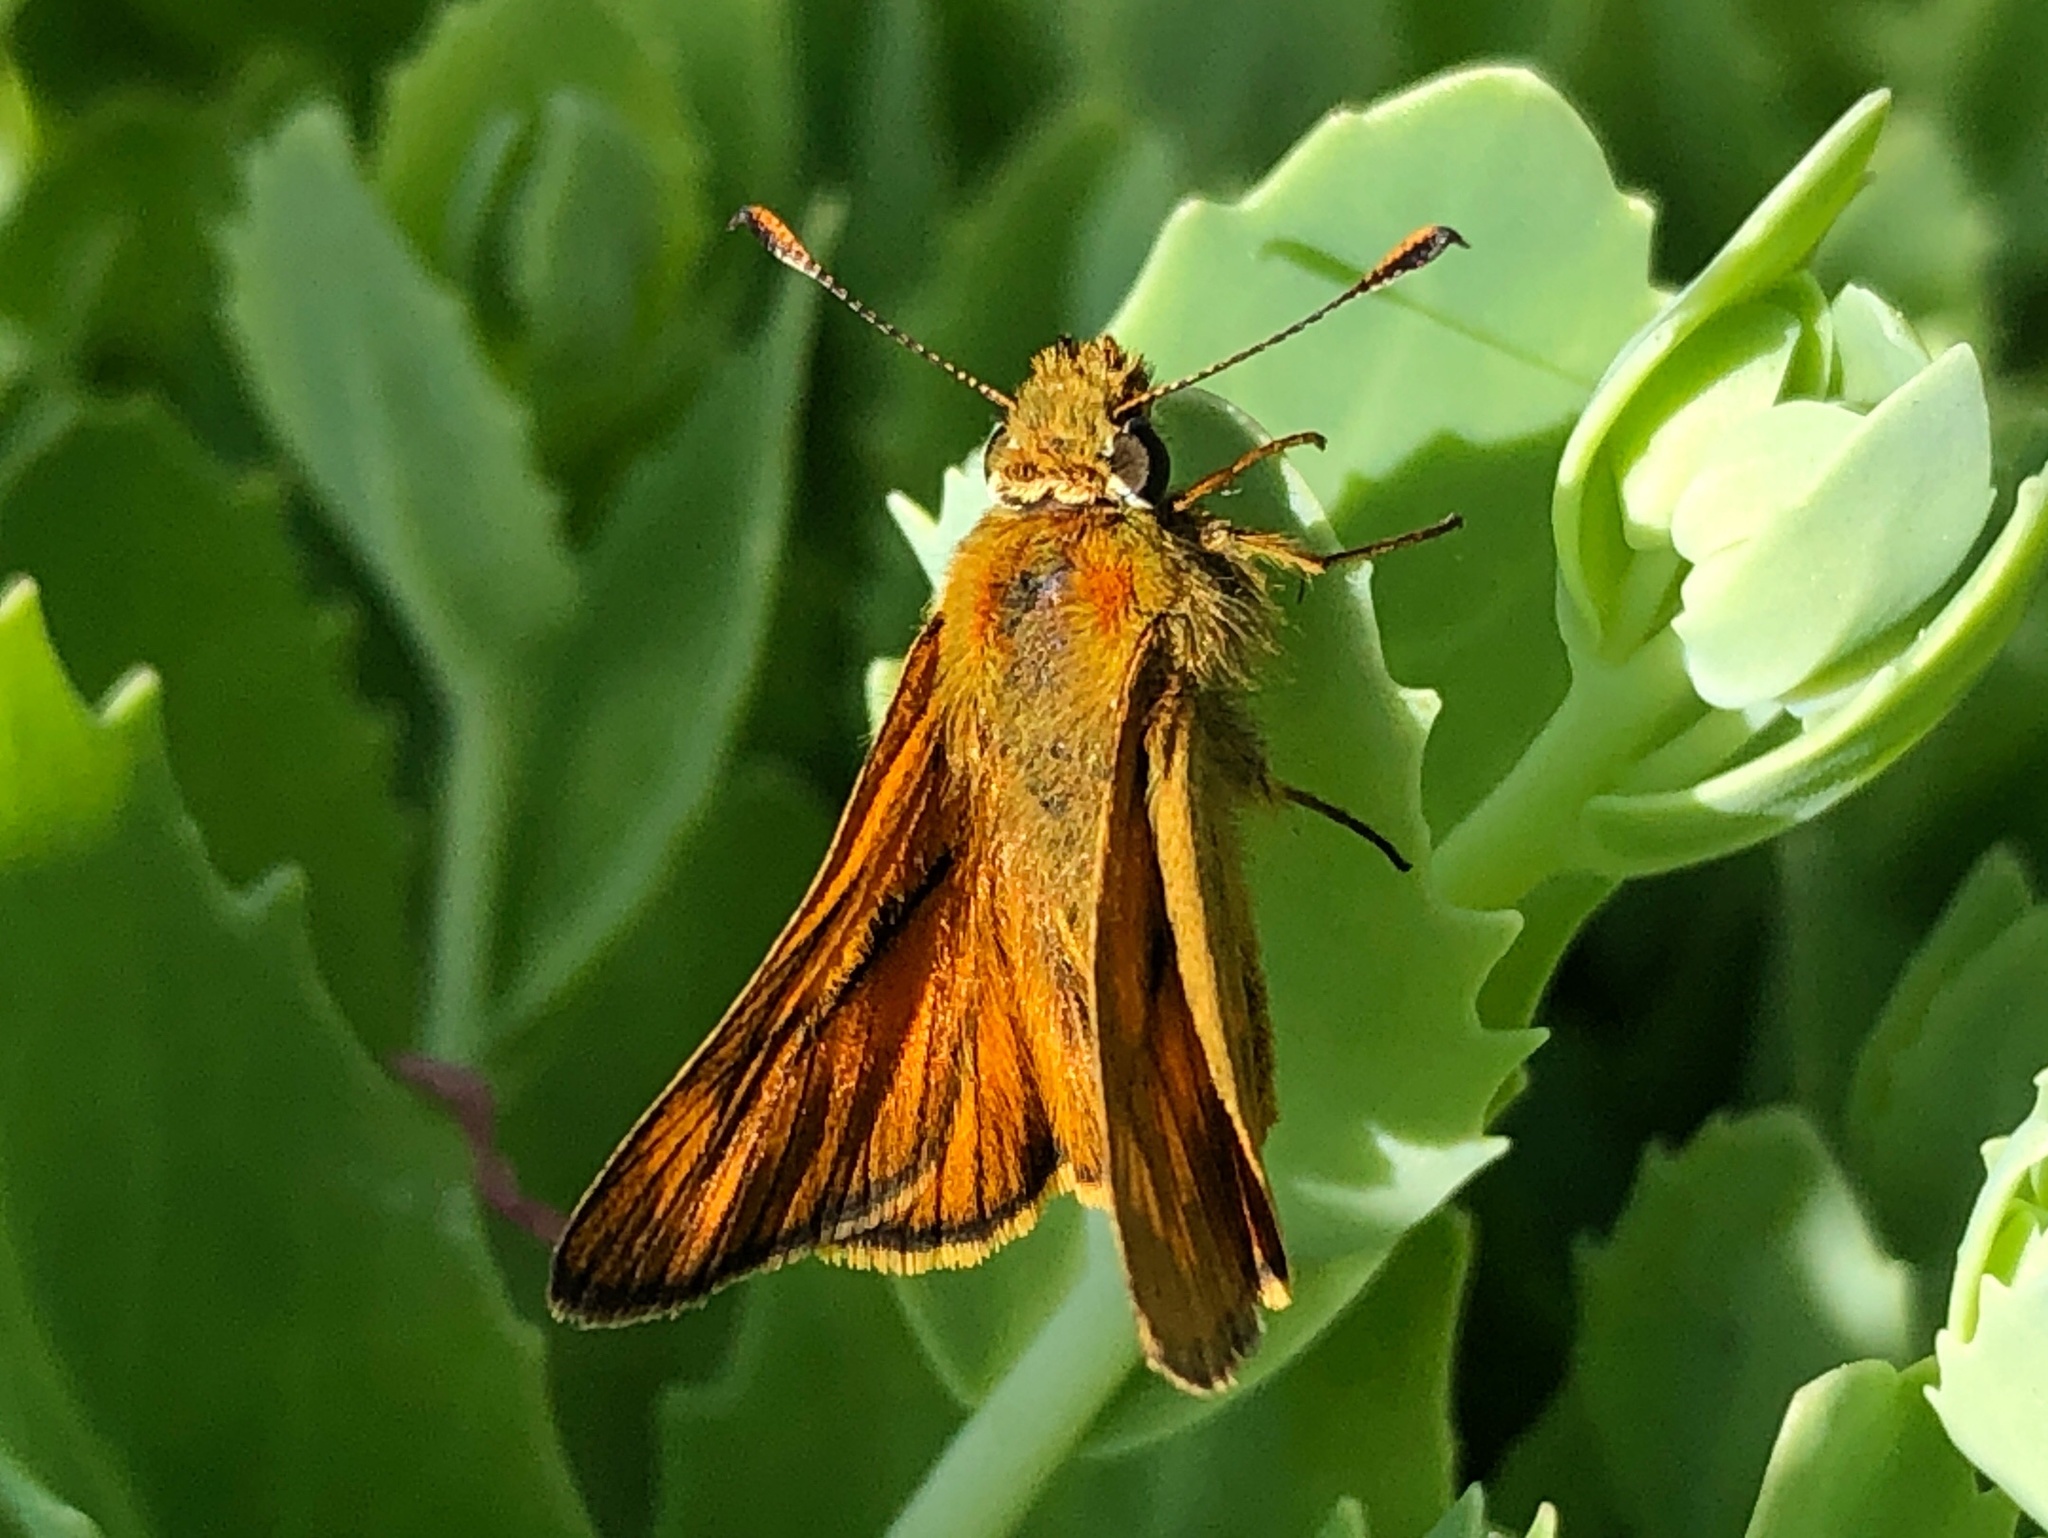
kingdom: Animalia
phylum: Arthropoda
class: Insecta
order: Lepidoptera
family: Hesperiidae
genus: Ochlodes
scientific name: Ochlodes venata
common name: Large skipper
